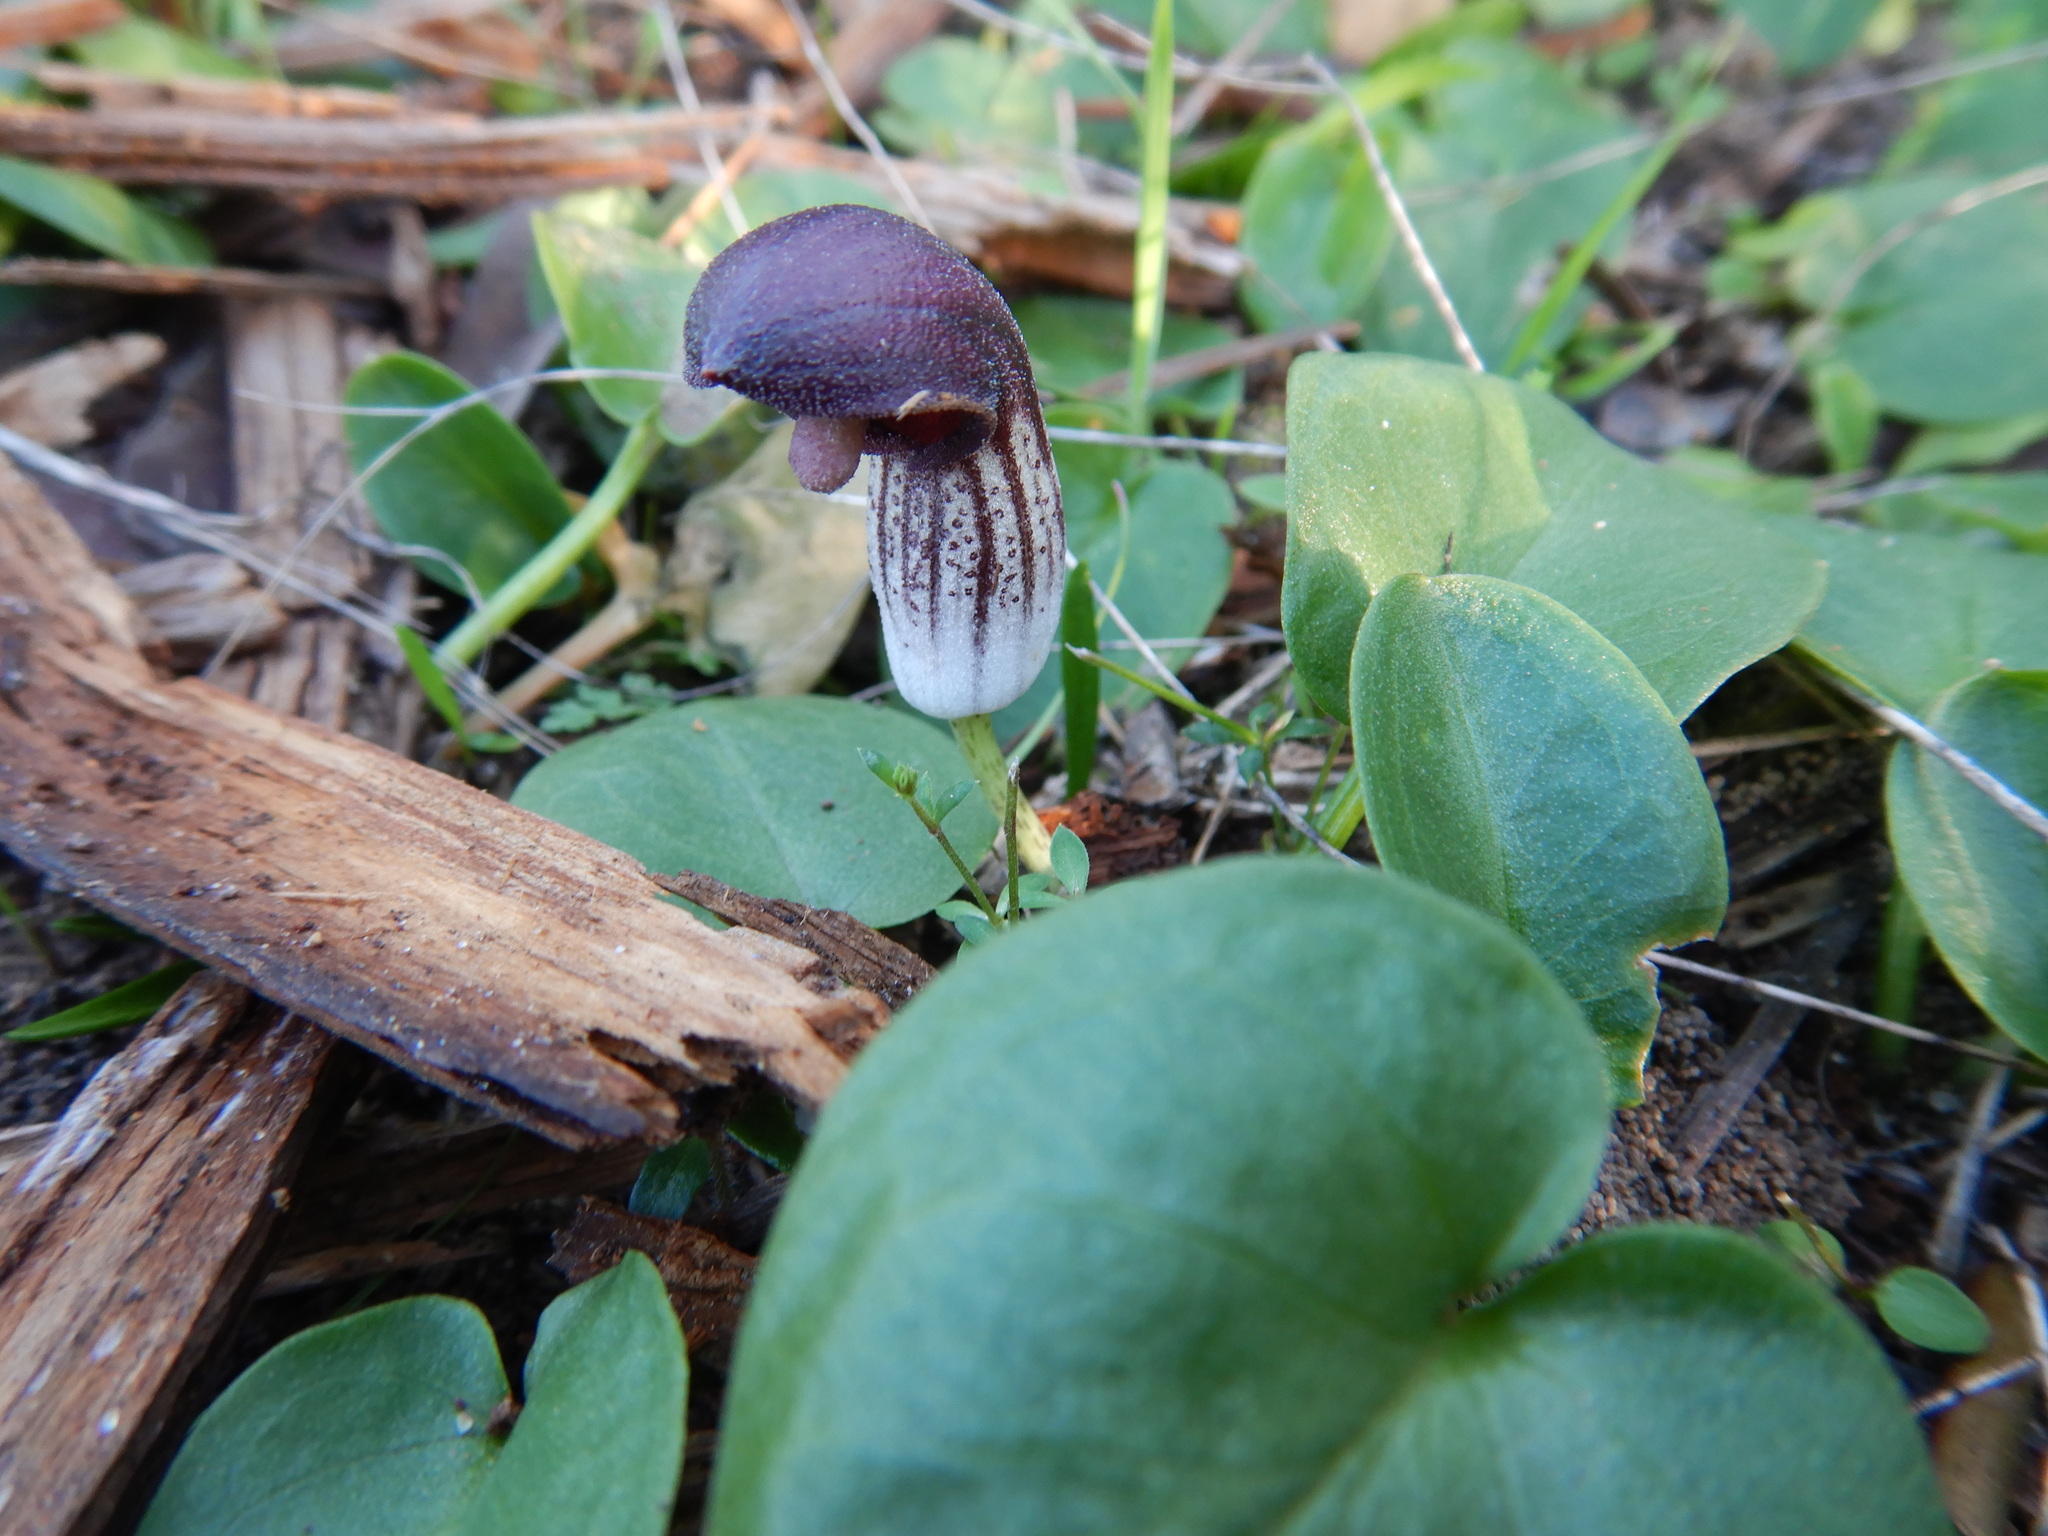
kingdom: Plantae
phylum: Tracheophyta
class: Liliopsida
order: Alismatales
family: Araceae
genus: Arisarum
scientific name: Arisarum simorrhinum
